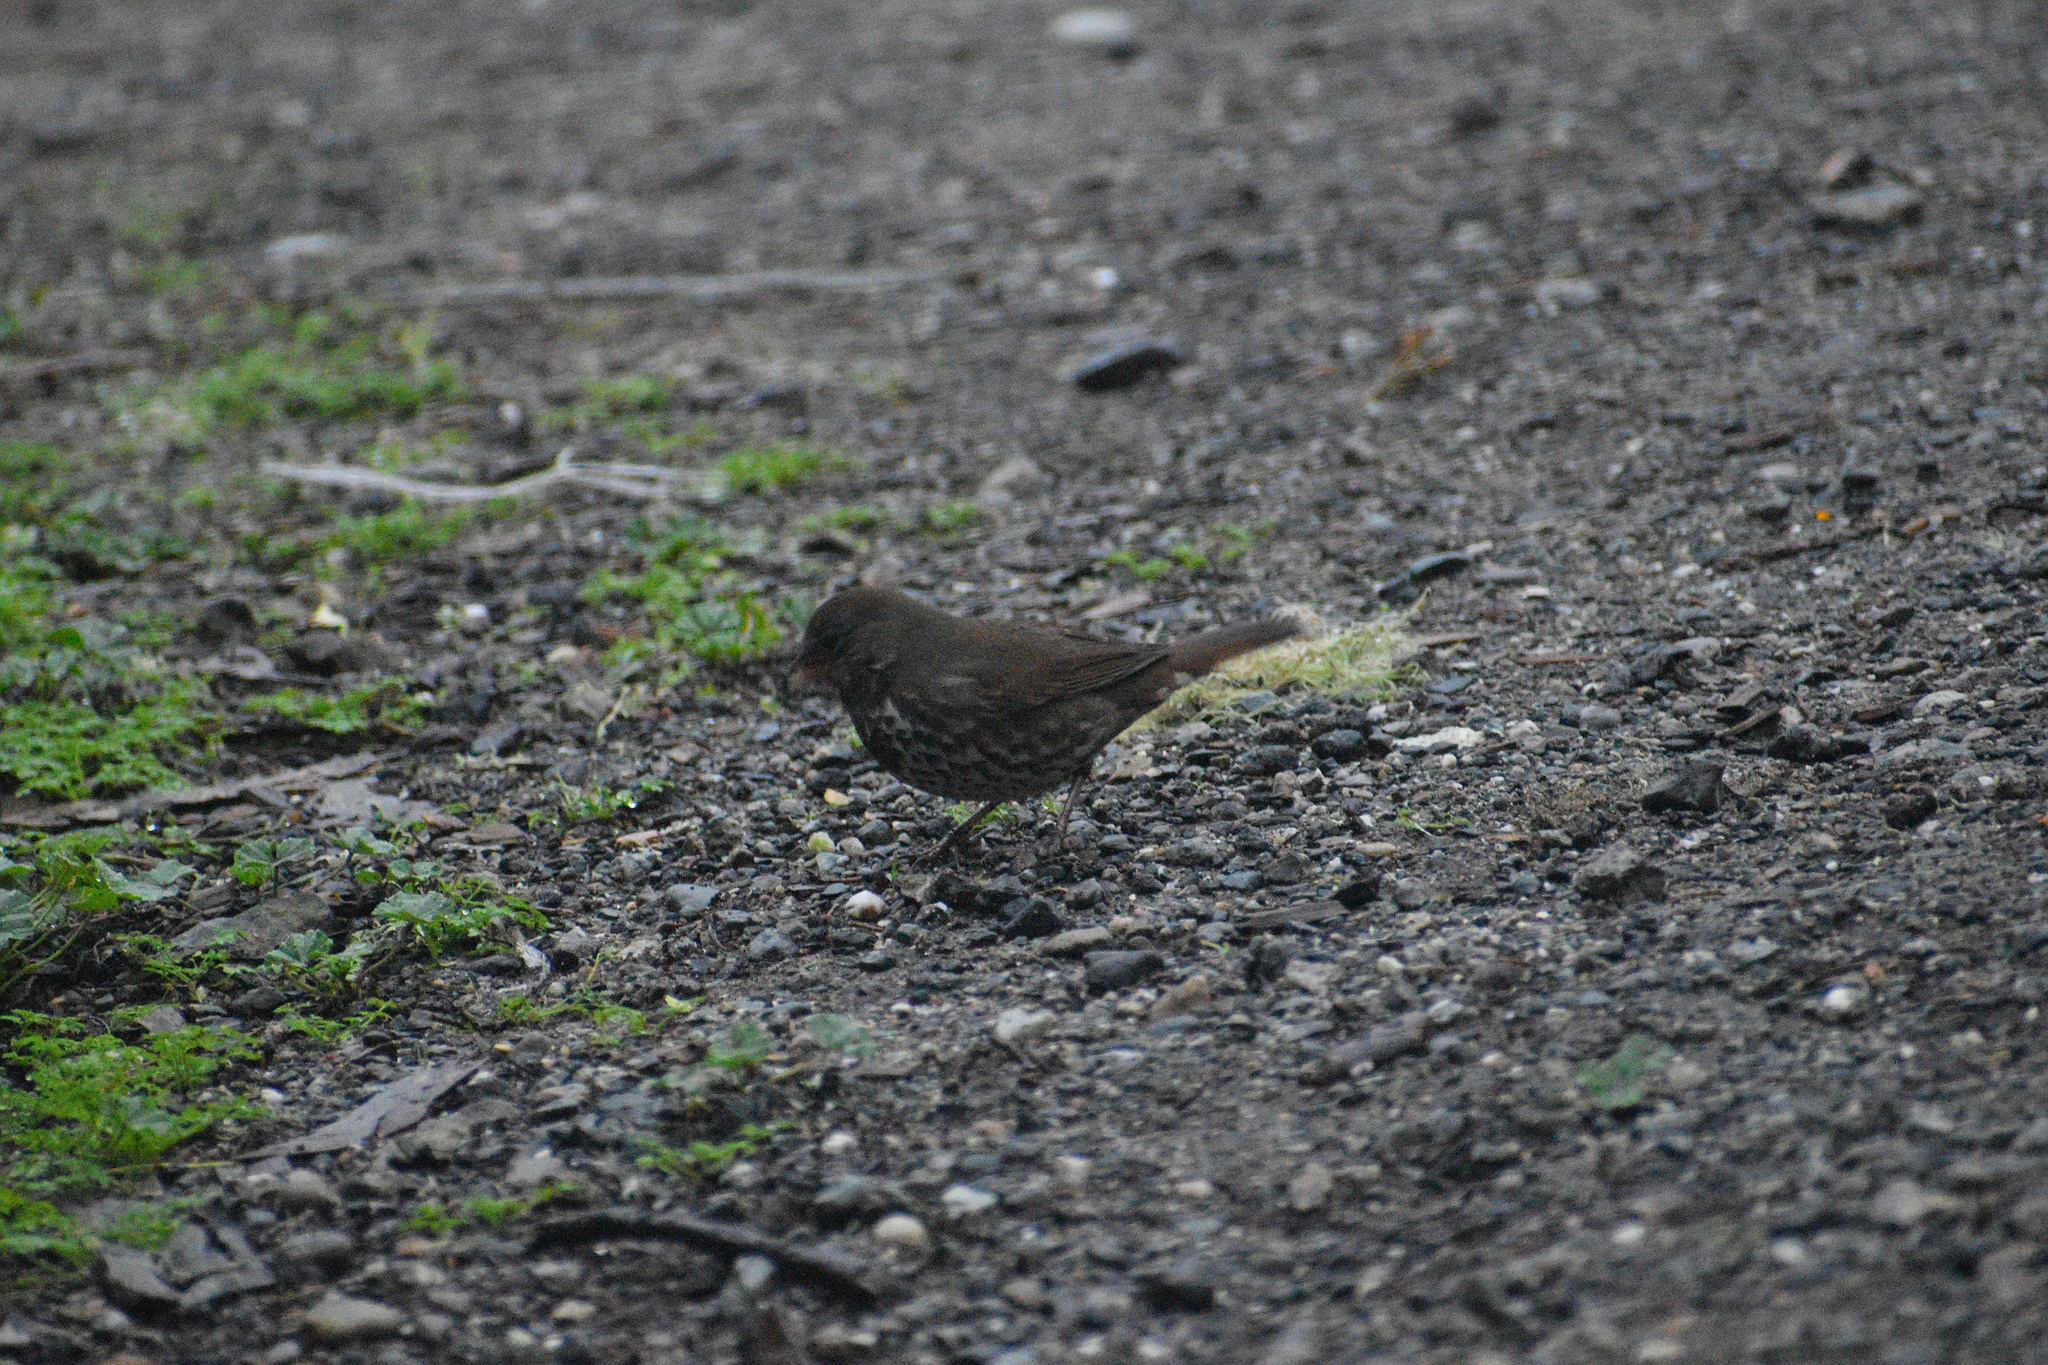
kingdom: Animalia
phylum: Chordata
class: Aves
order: Passeriformes
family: Passerellidae
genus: Passerella
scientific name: Passerella iliaca
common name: Fox sparrow
